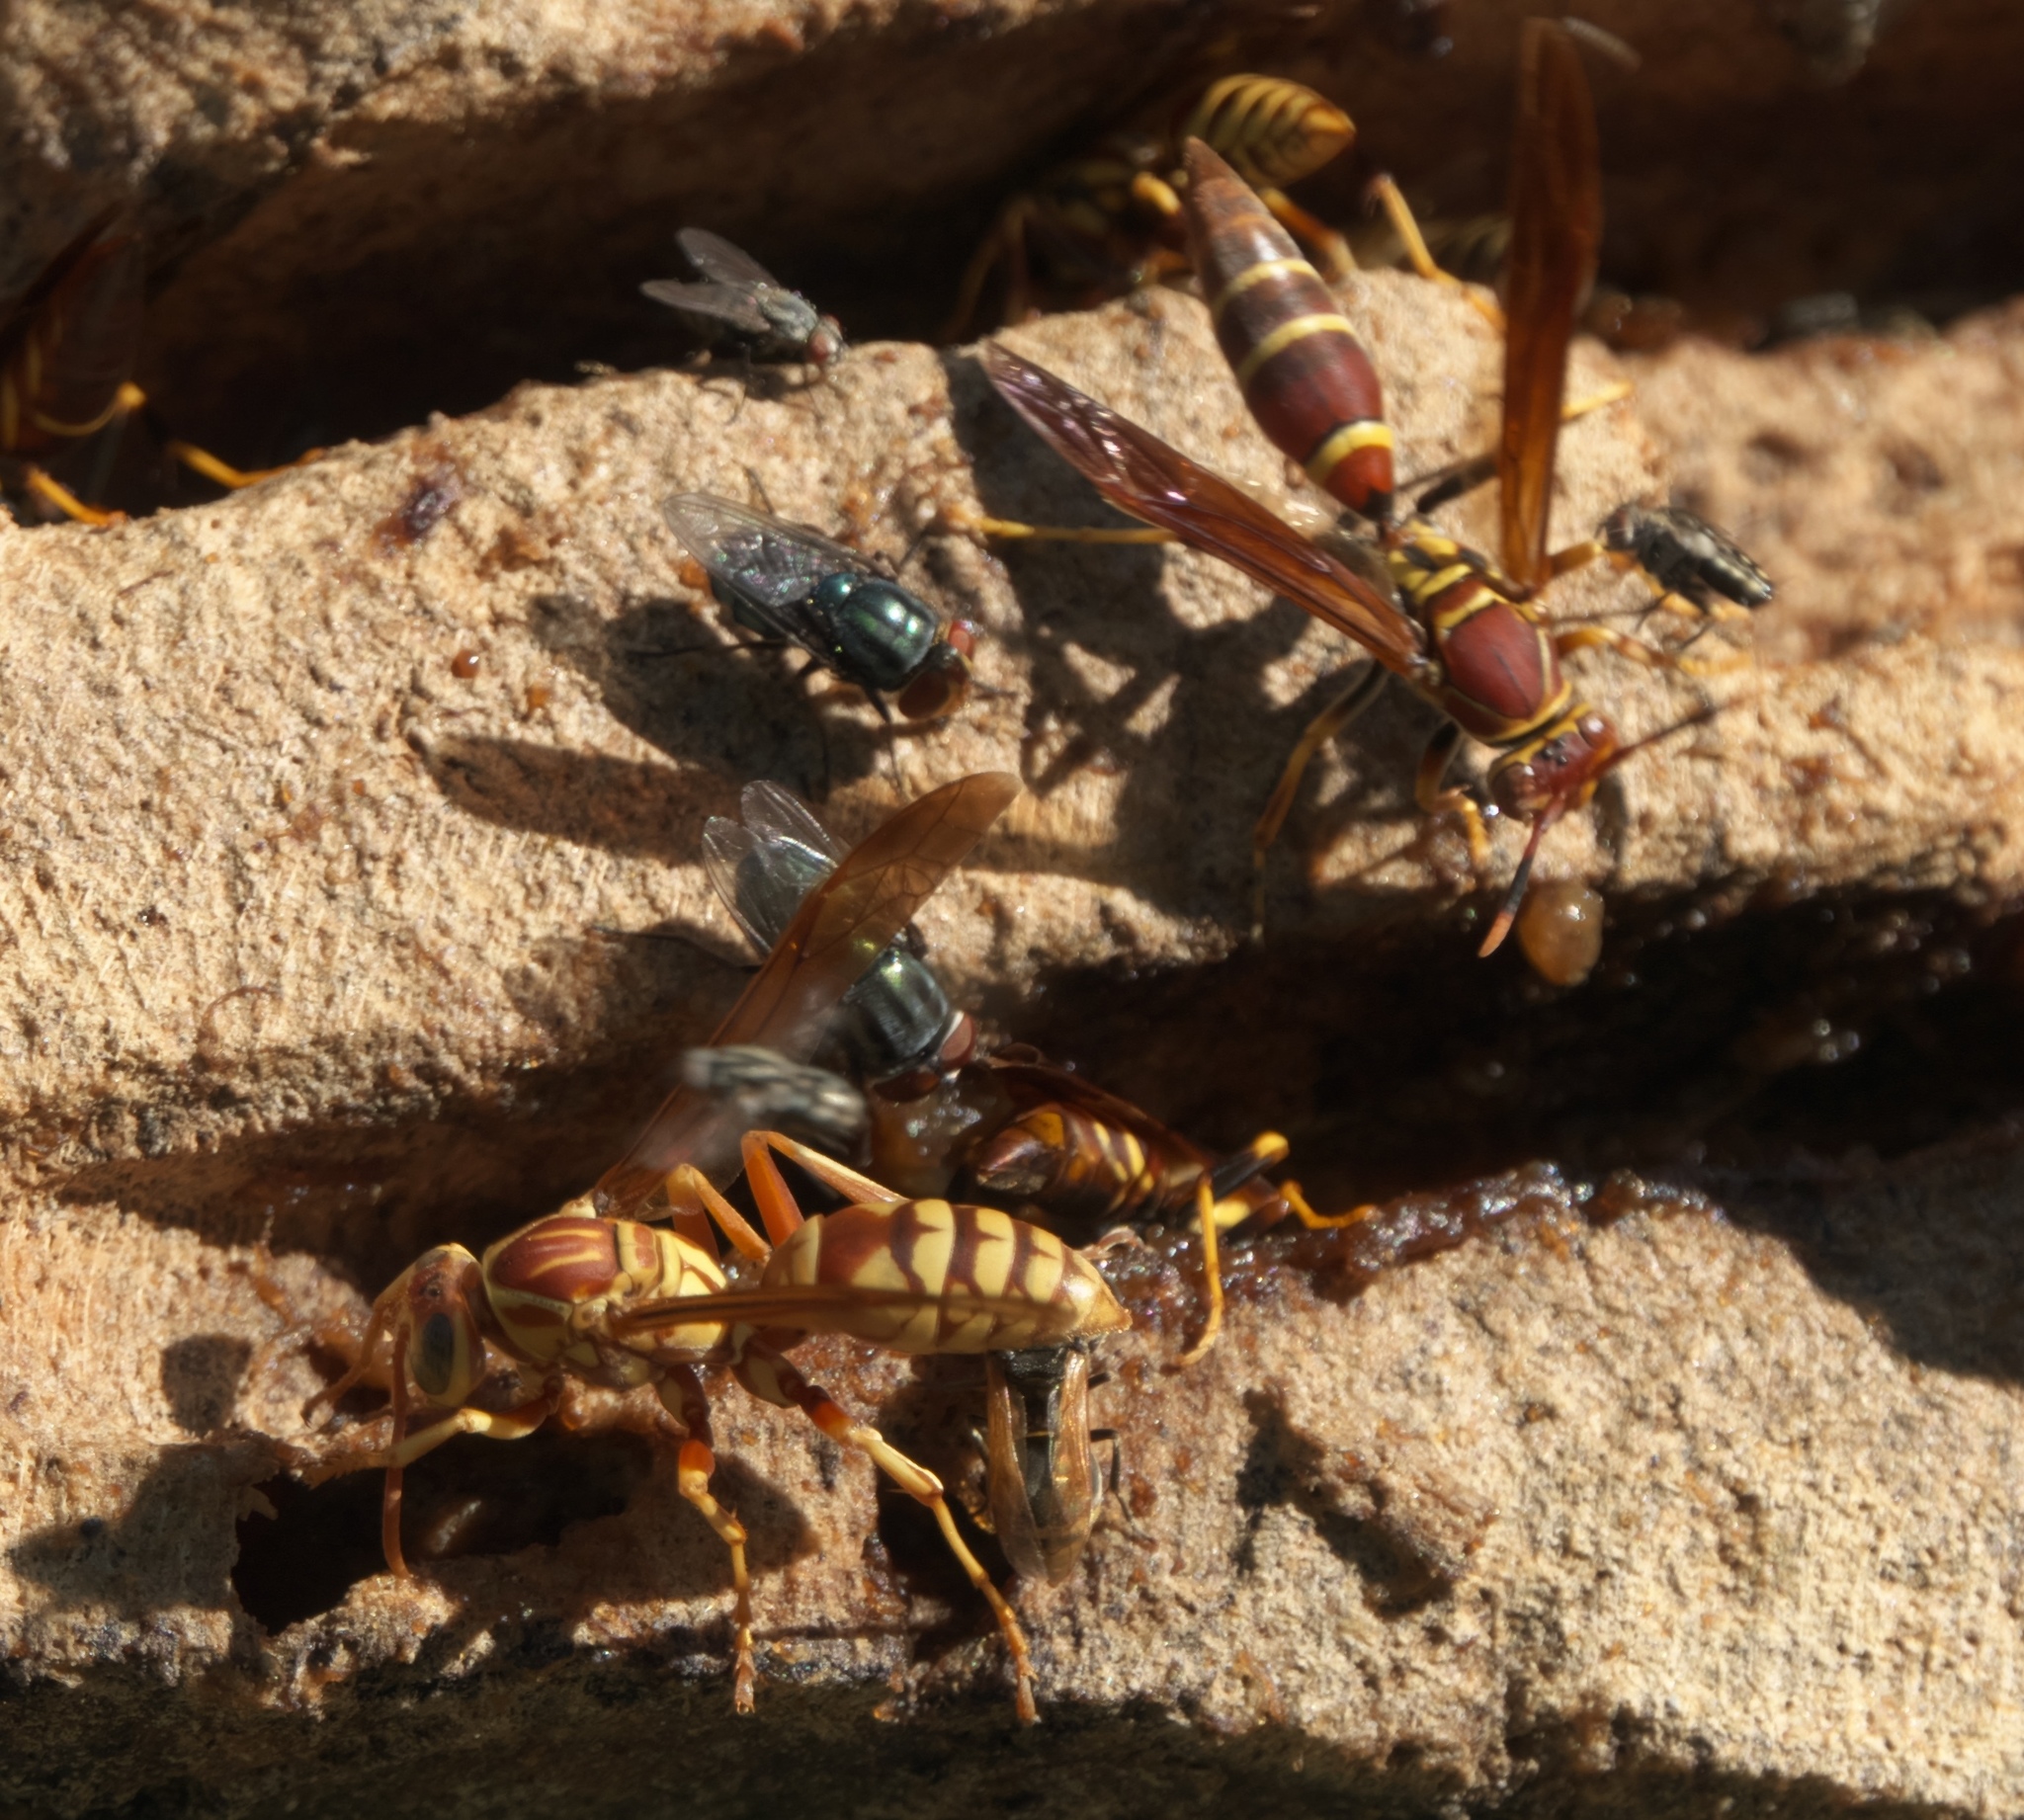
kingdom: Animalia
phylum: Arthropoda
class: Insecta
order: Hymenoptera
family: Eumenidae
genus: Polistes
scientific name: Polistes instabilis
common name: Unstable paper wasp
